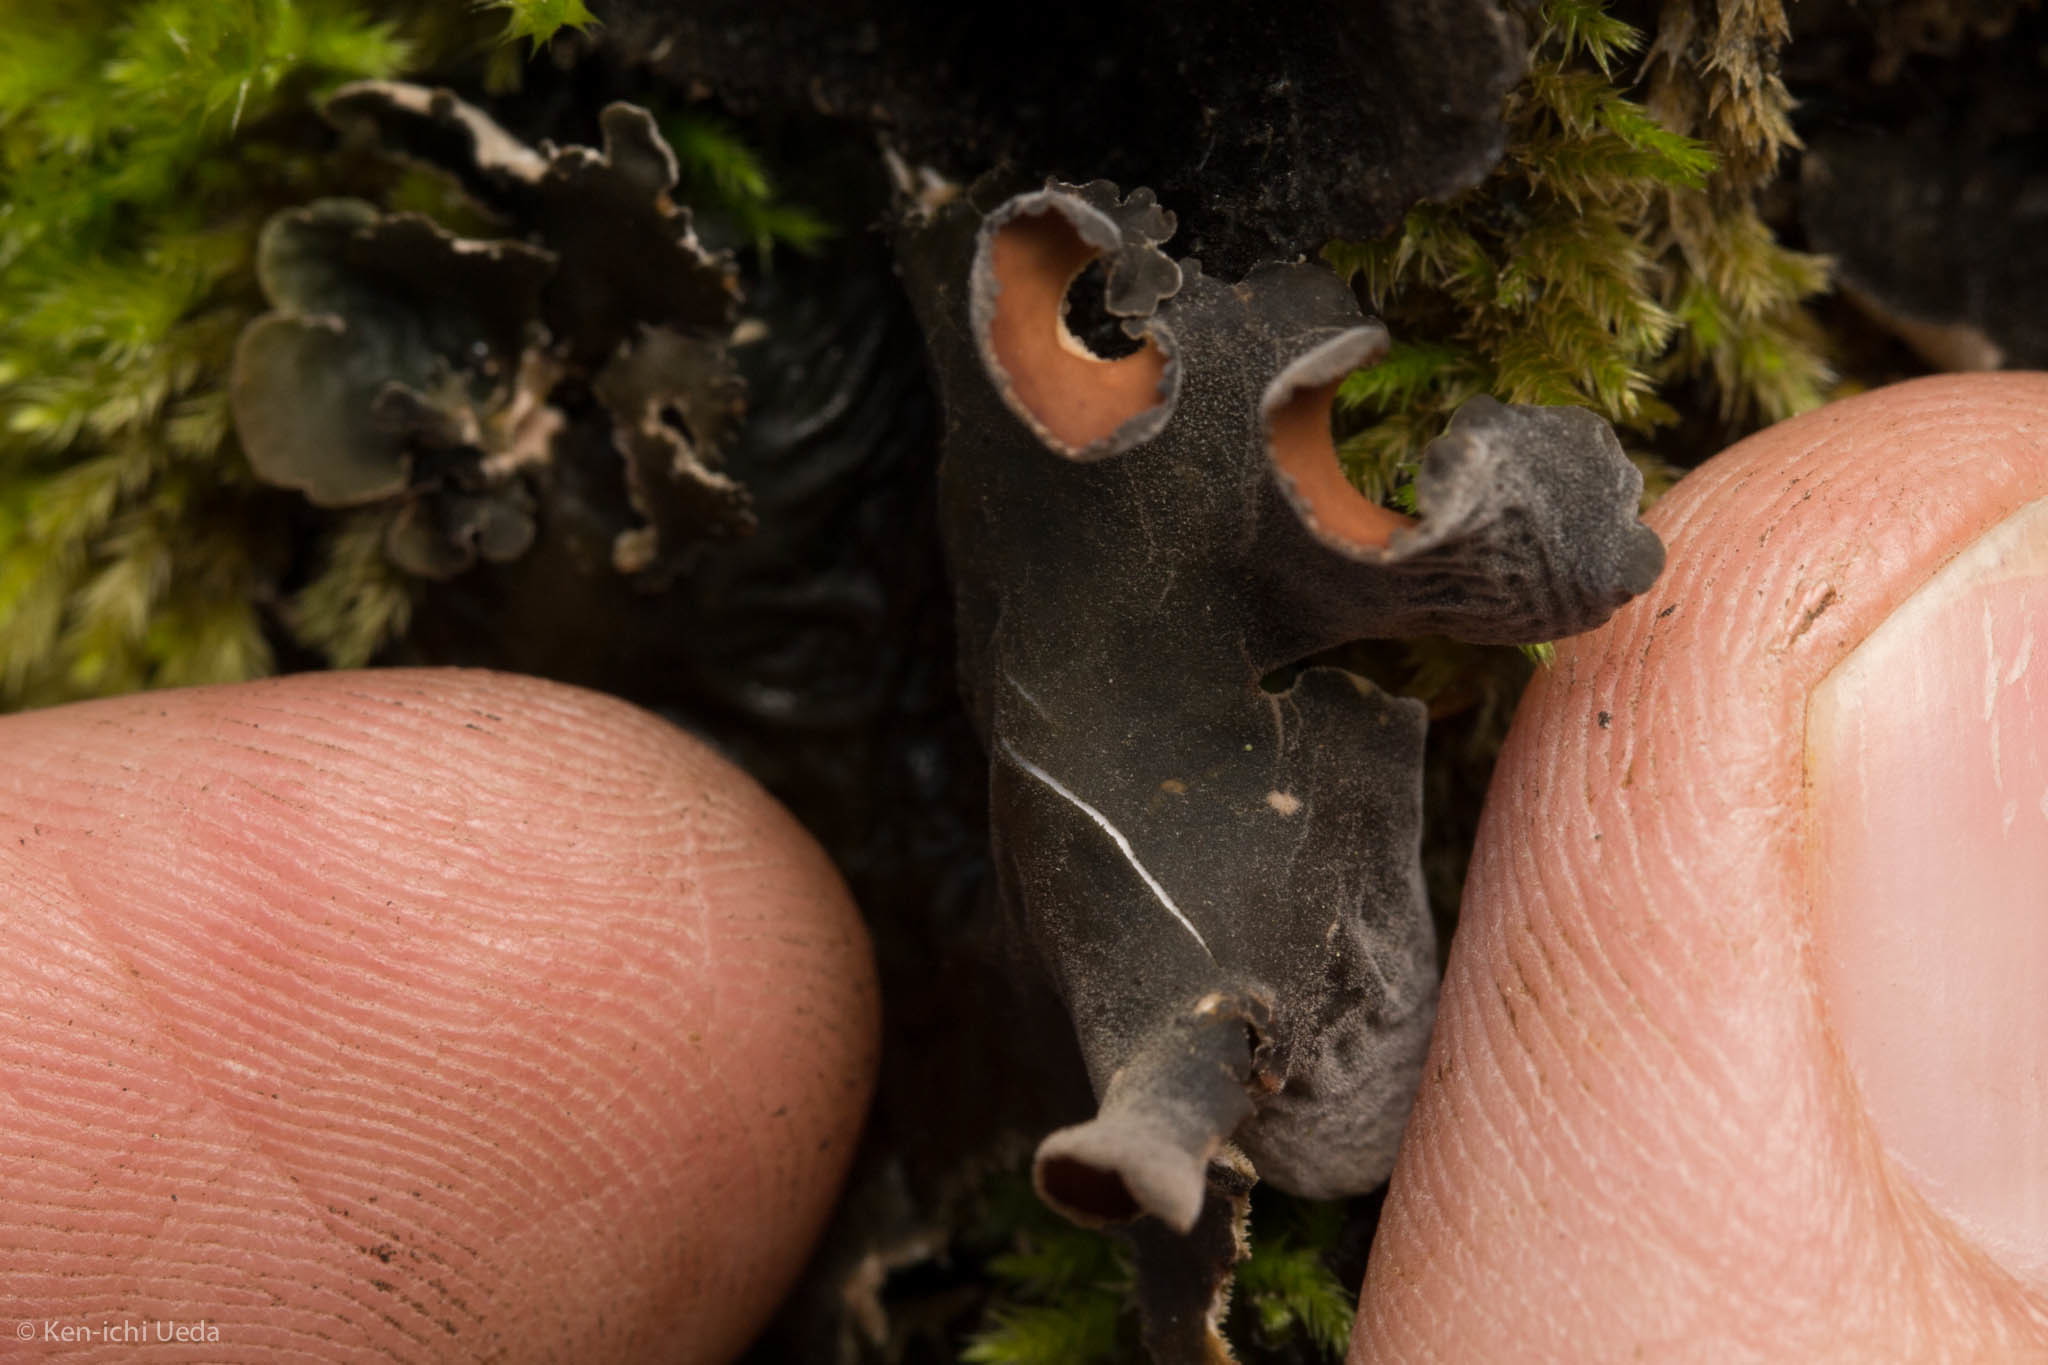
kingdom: Fungi
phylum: Ascomycota
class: Lecanoromycetes
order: Peltigerales
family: Nephromataceae
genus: Nephroma
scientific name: Nephroma resupinatum
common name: Pimpled kidney lichen
